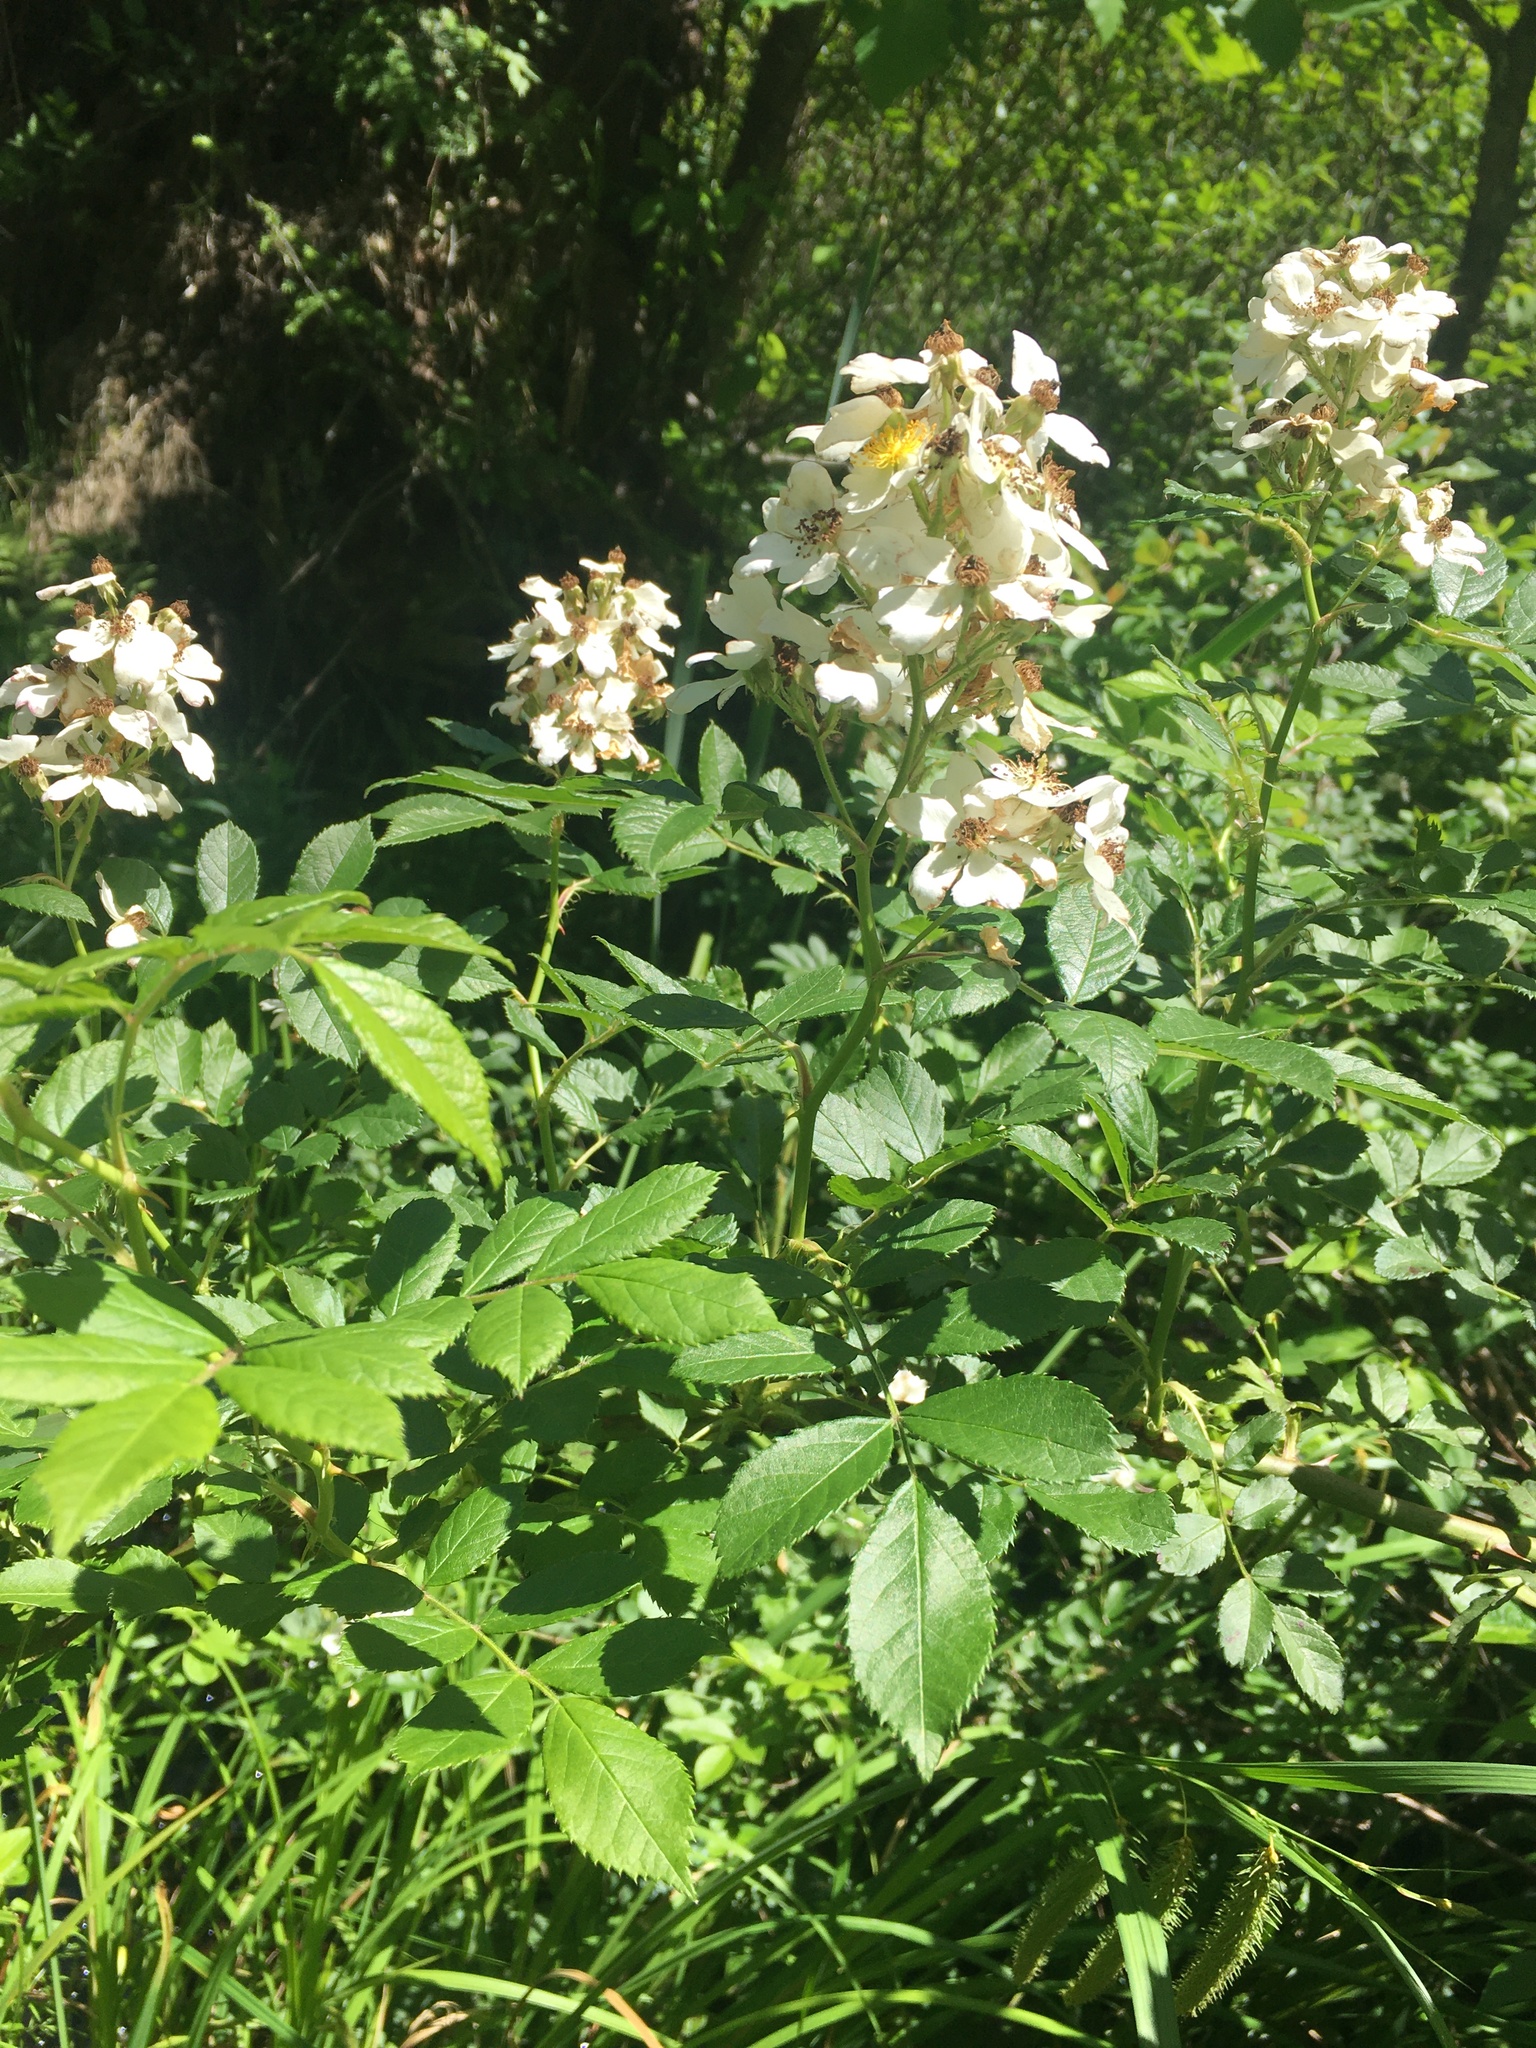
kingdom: Plantae
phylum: Tracheophyta
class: Magnoliopsida
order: Rosales
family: Rosaceae
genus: Rosa
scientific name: Rosa multiflora
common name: Multiflora rose
